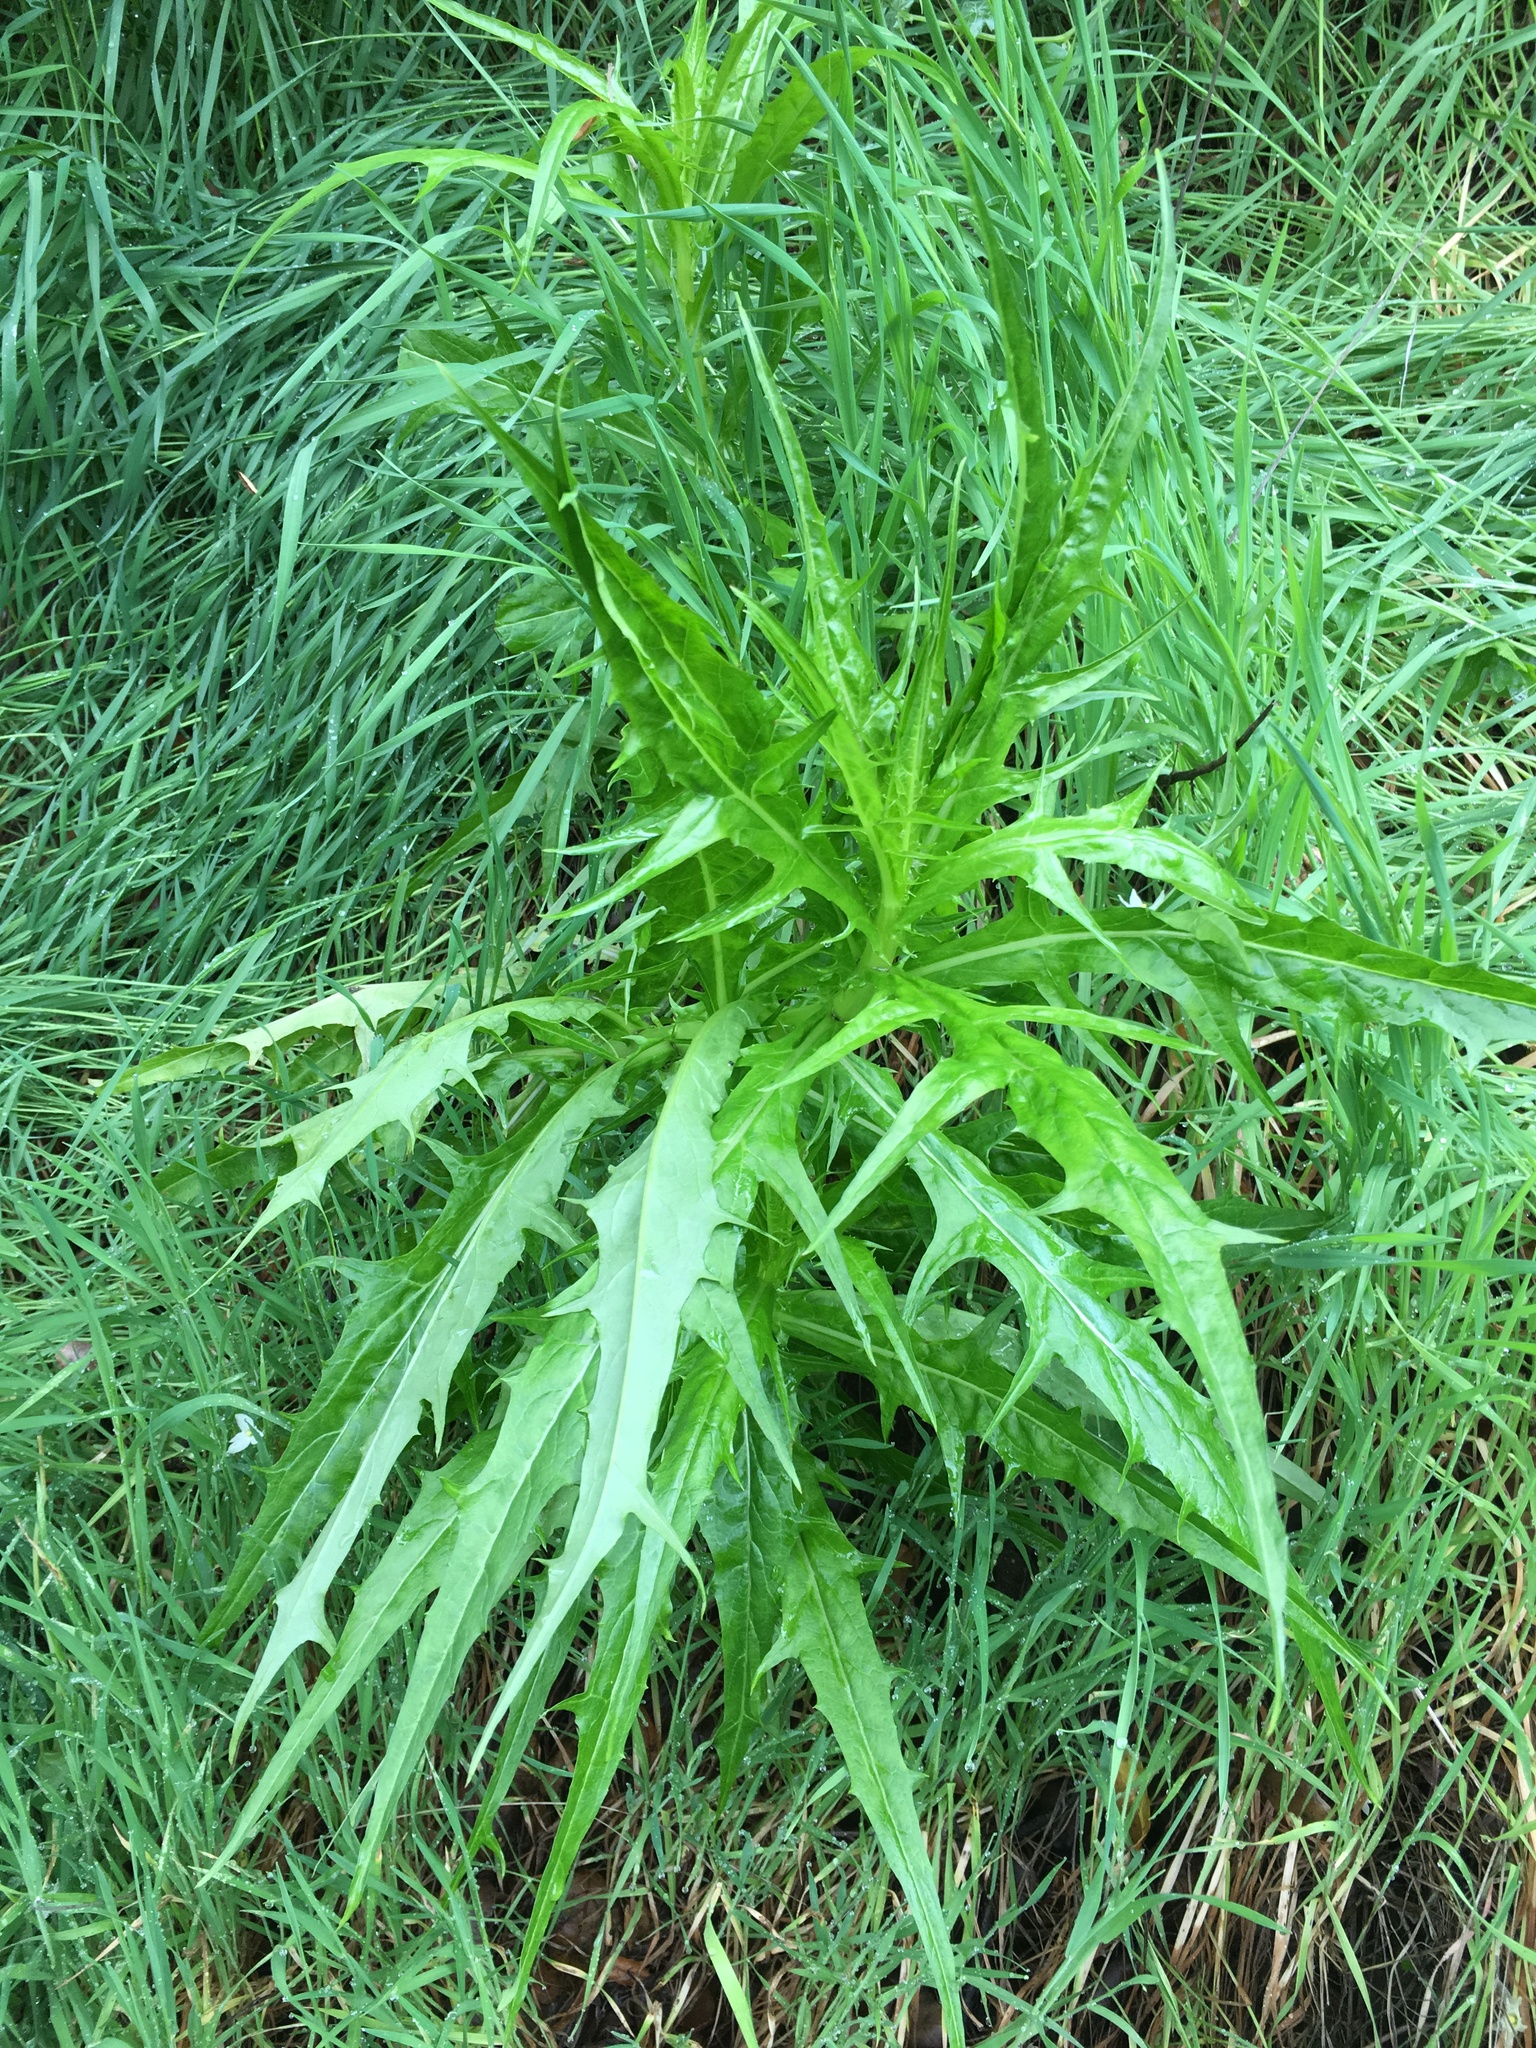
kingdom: Plantae
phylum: Tracheophyta
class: Magnoliopsida
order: Asterales
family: Asteraceae
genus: Malacothrix
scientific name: Malacothrix saxatilis
